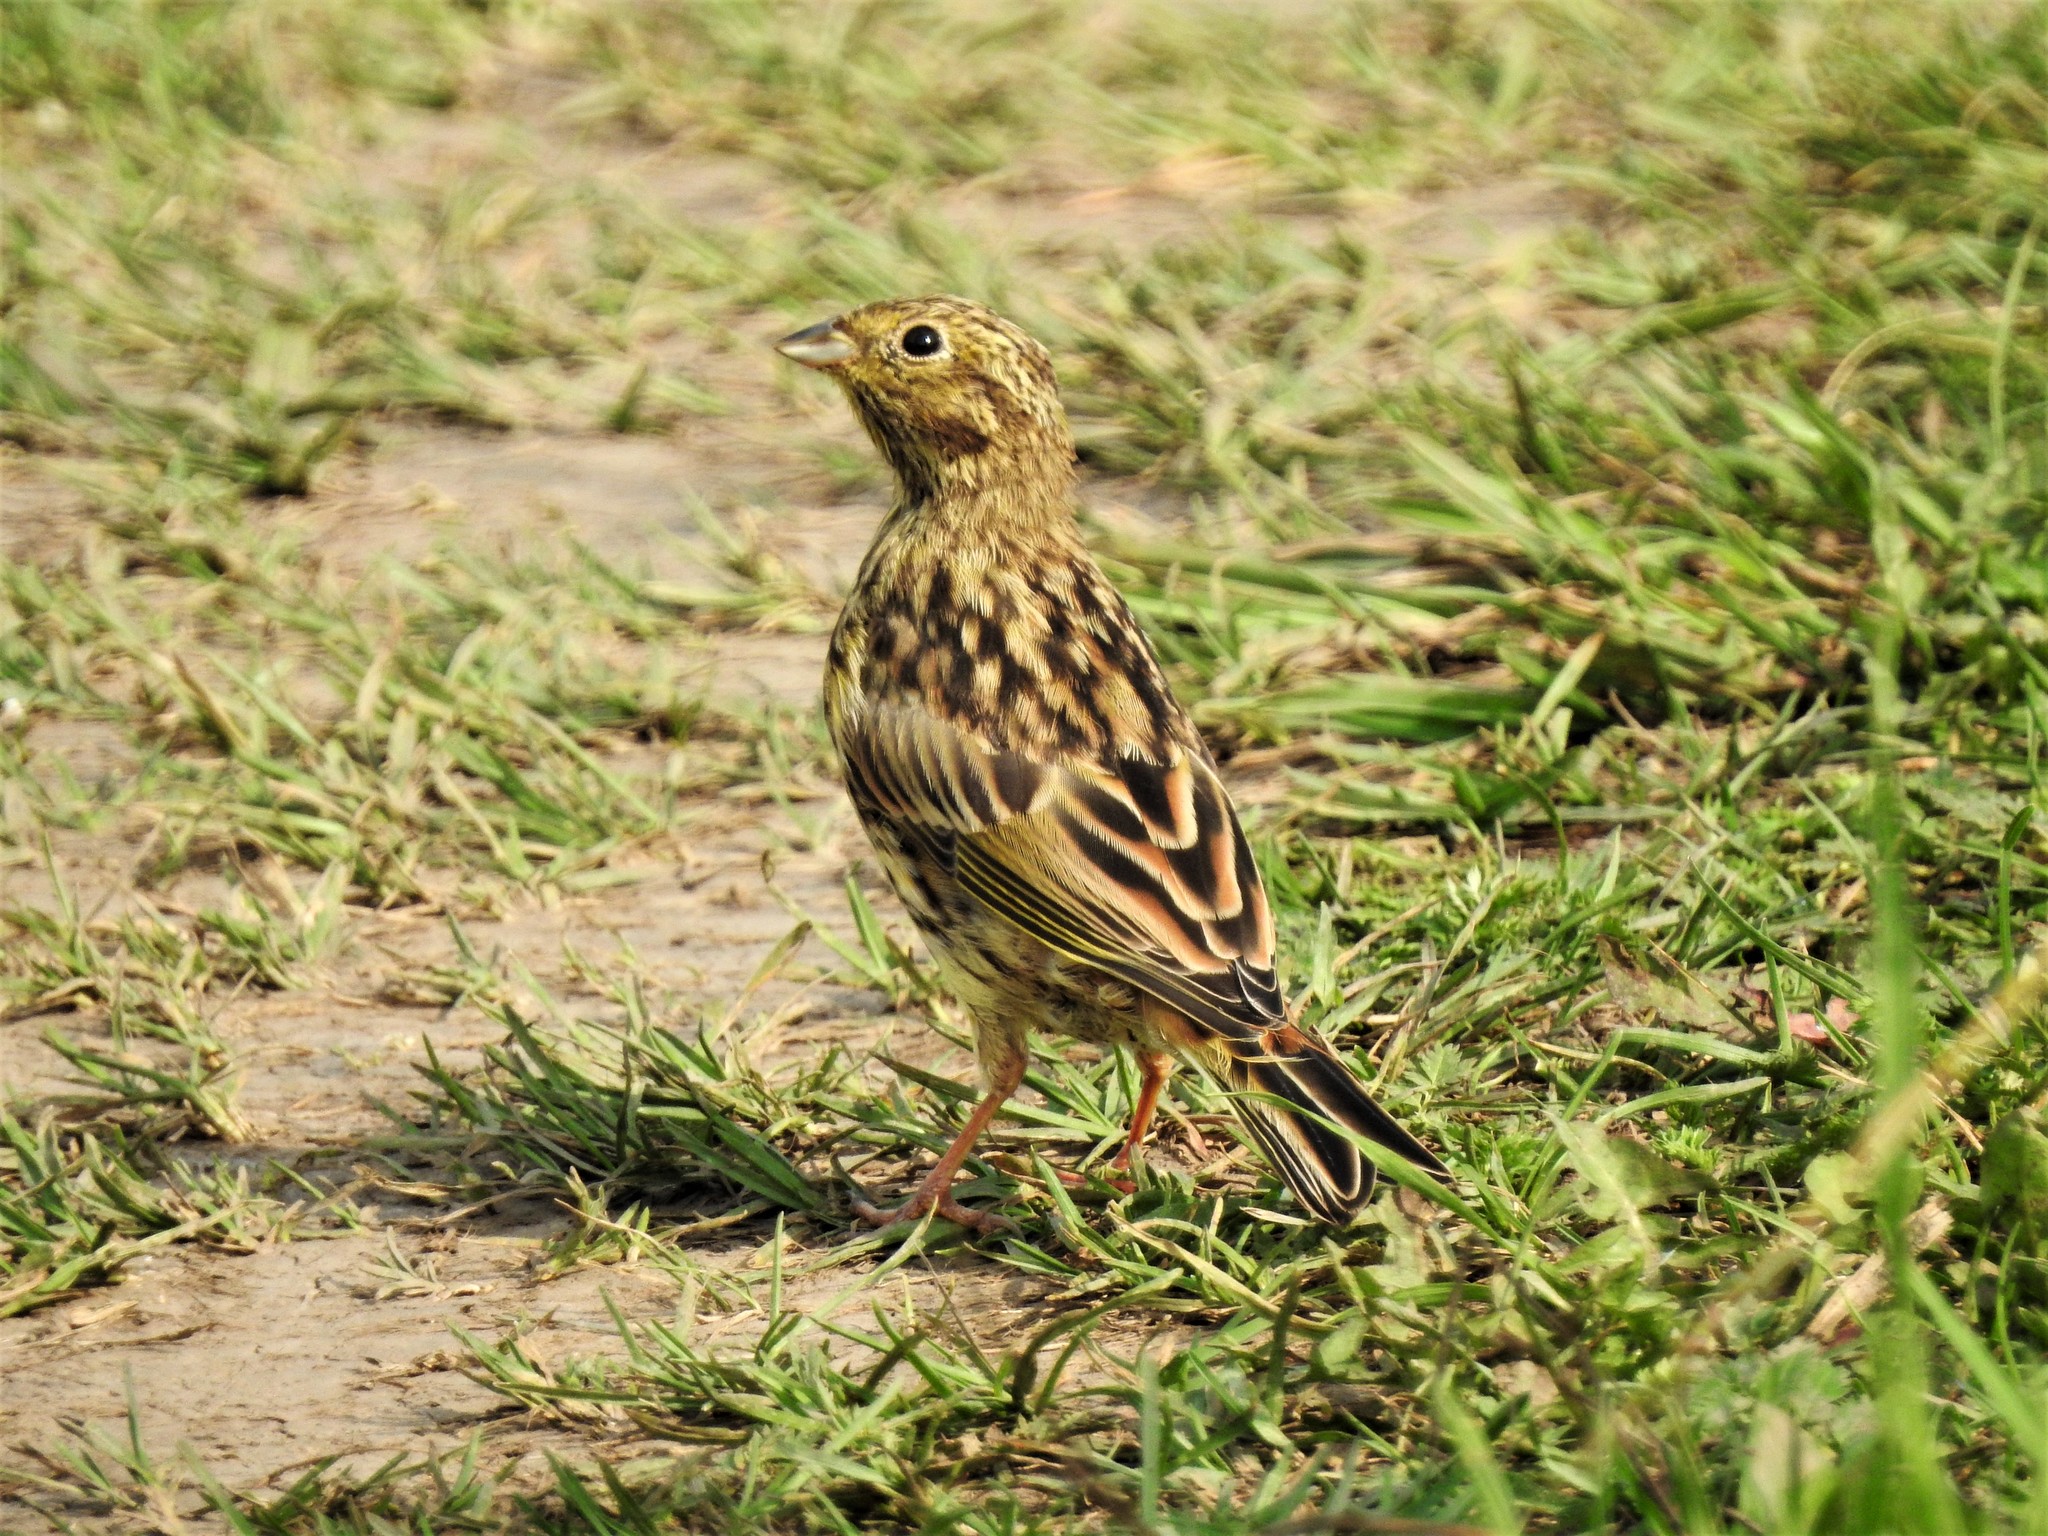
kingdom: Animalia
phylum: Chordata
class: Aves
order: Passeriformes
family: Emberizidae
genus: Emberiza
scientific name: Emberiza citrinella
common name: Yellowhammer
